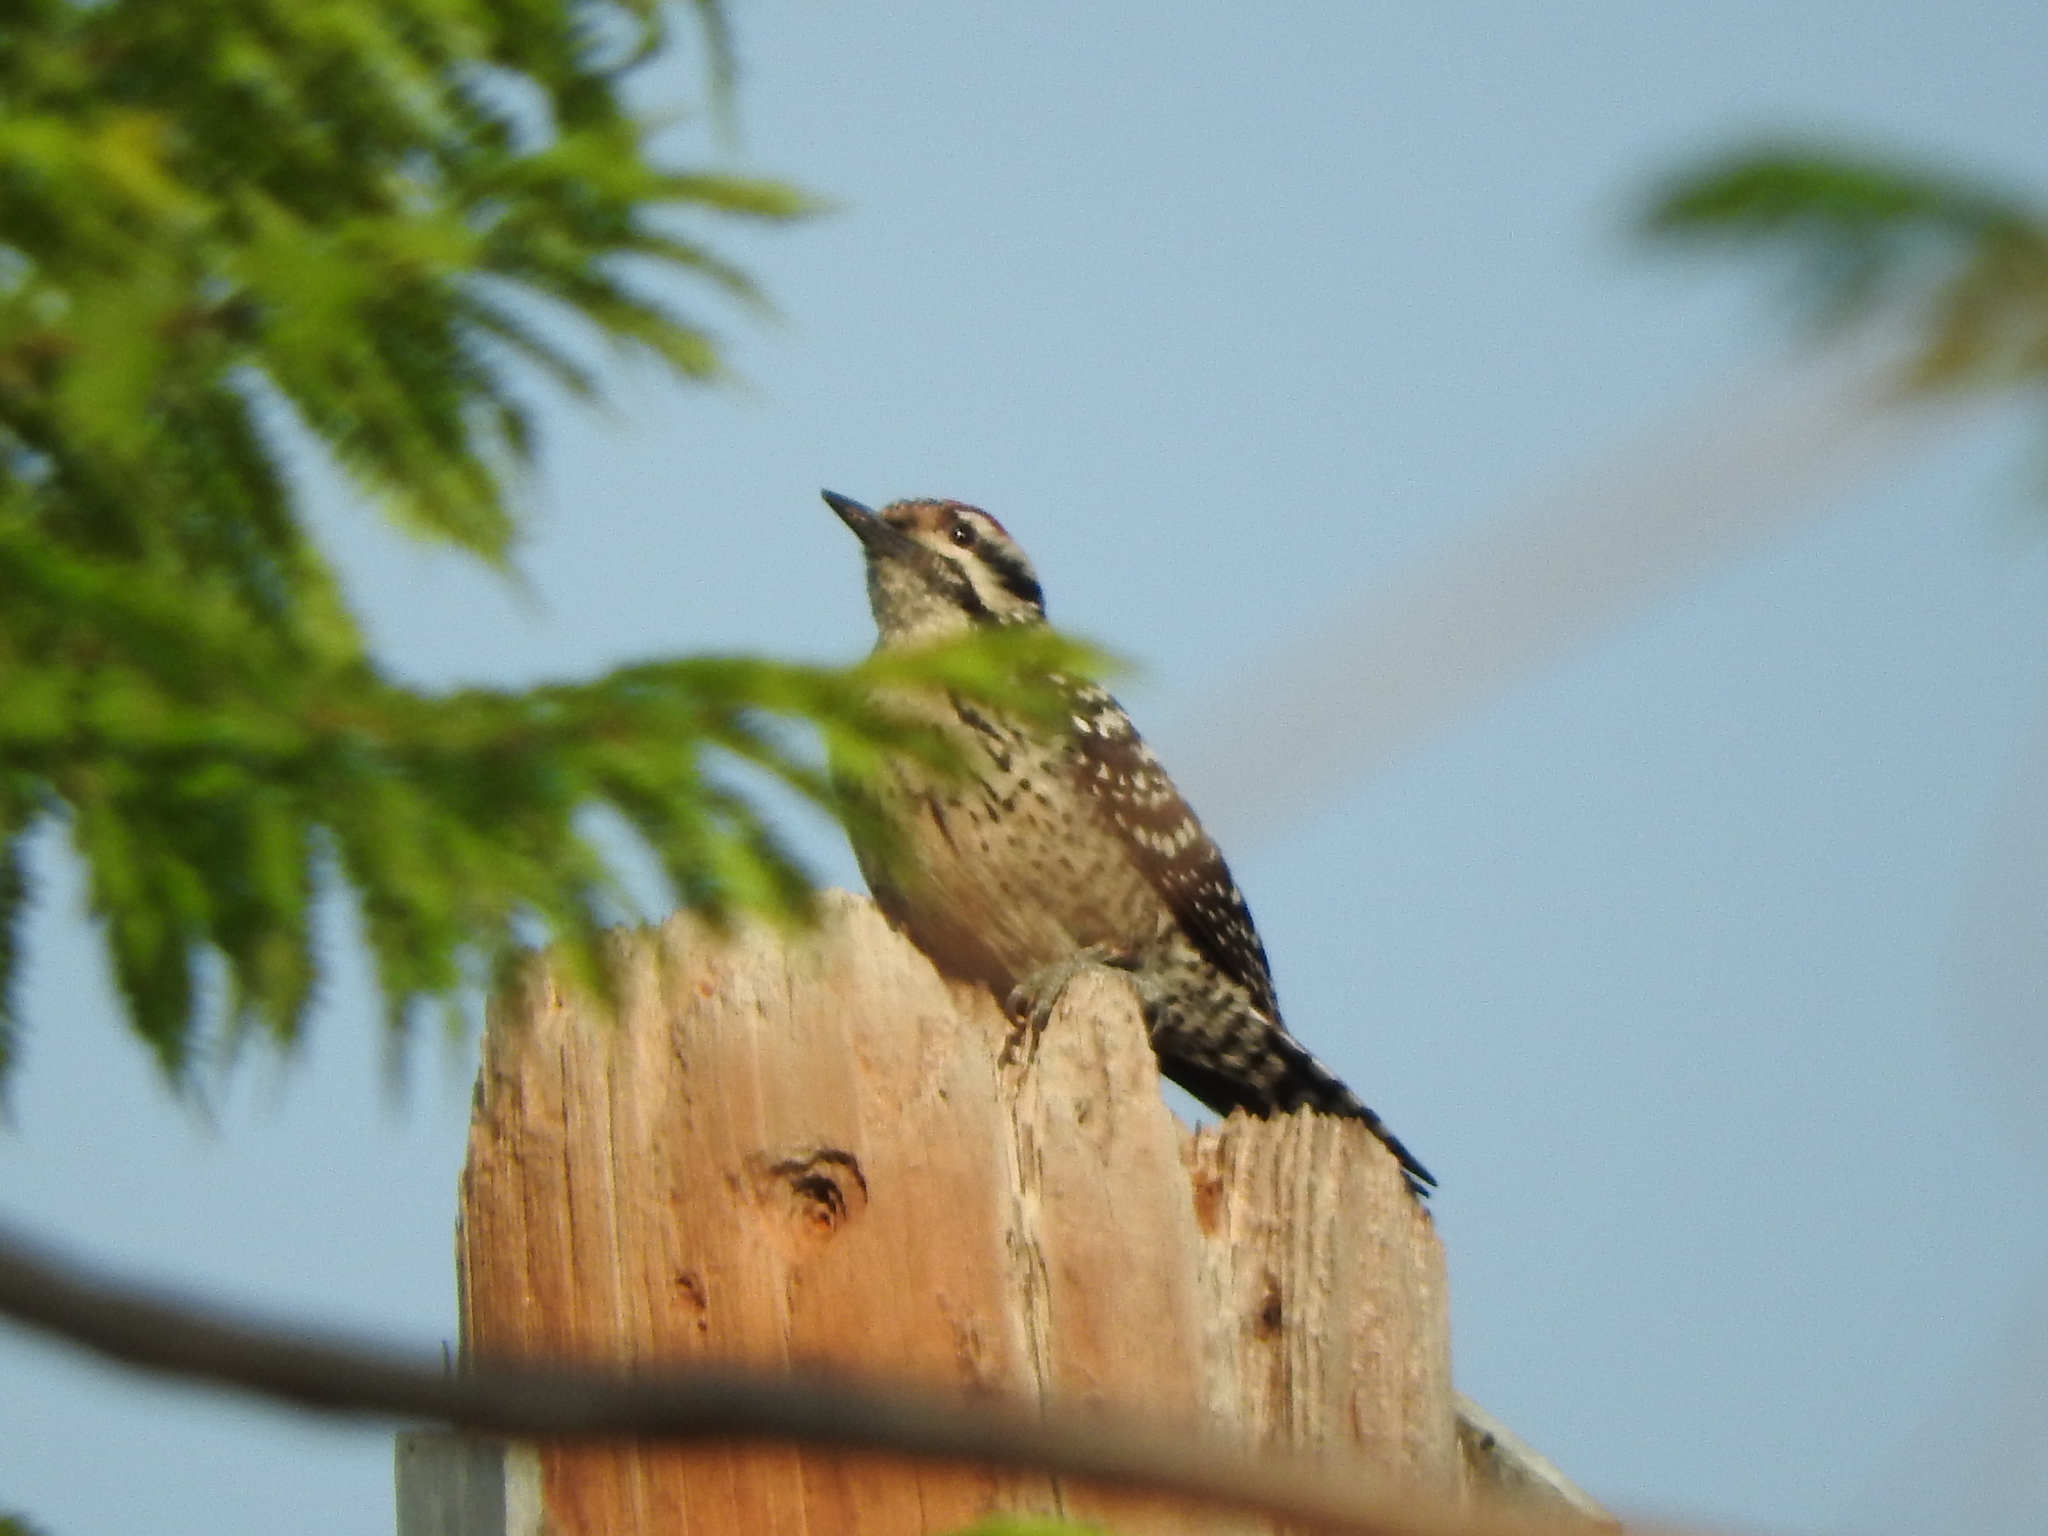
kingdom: Animalia
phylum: Chordata
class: Aves
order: Piciformes
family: Picidae
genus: Dryobates
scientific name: Dryobates scalaris
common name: Ladder-backed woodpecker
